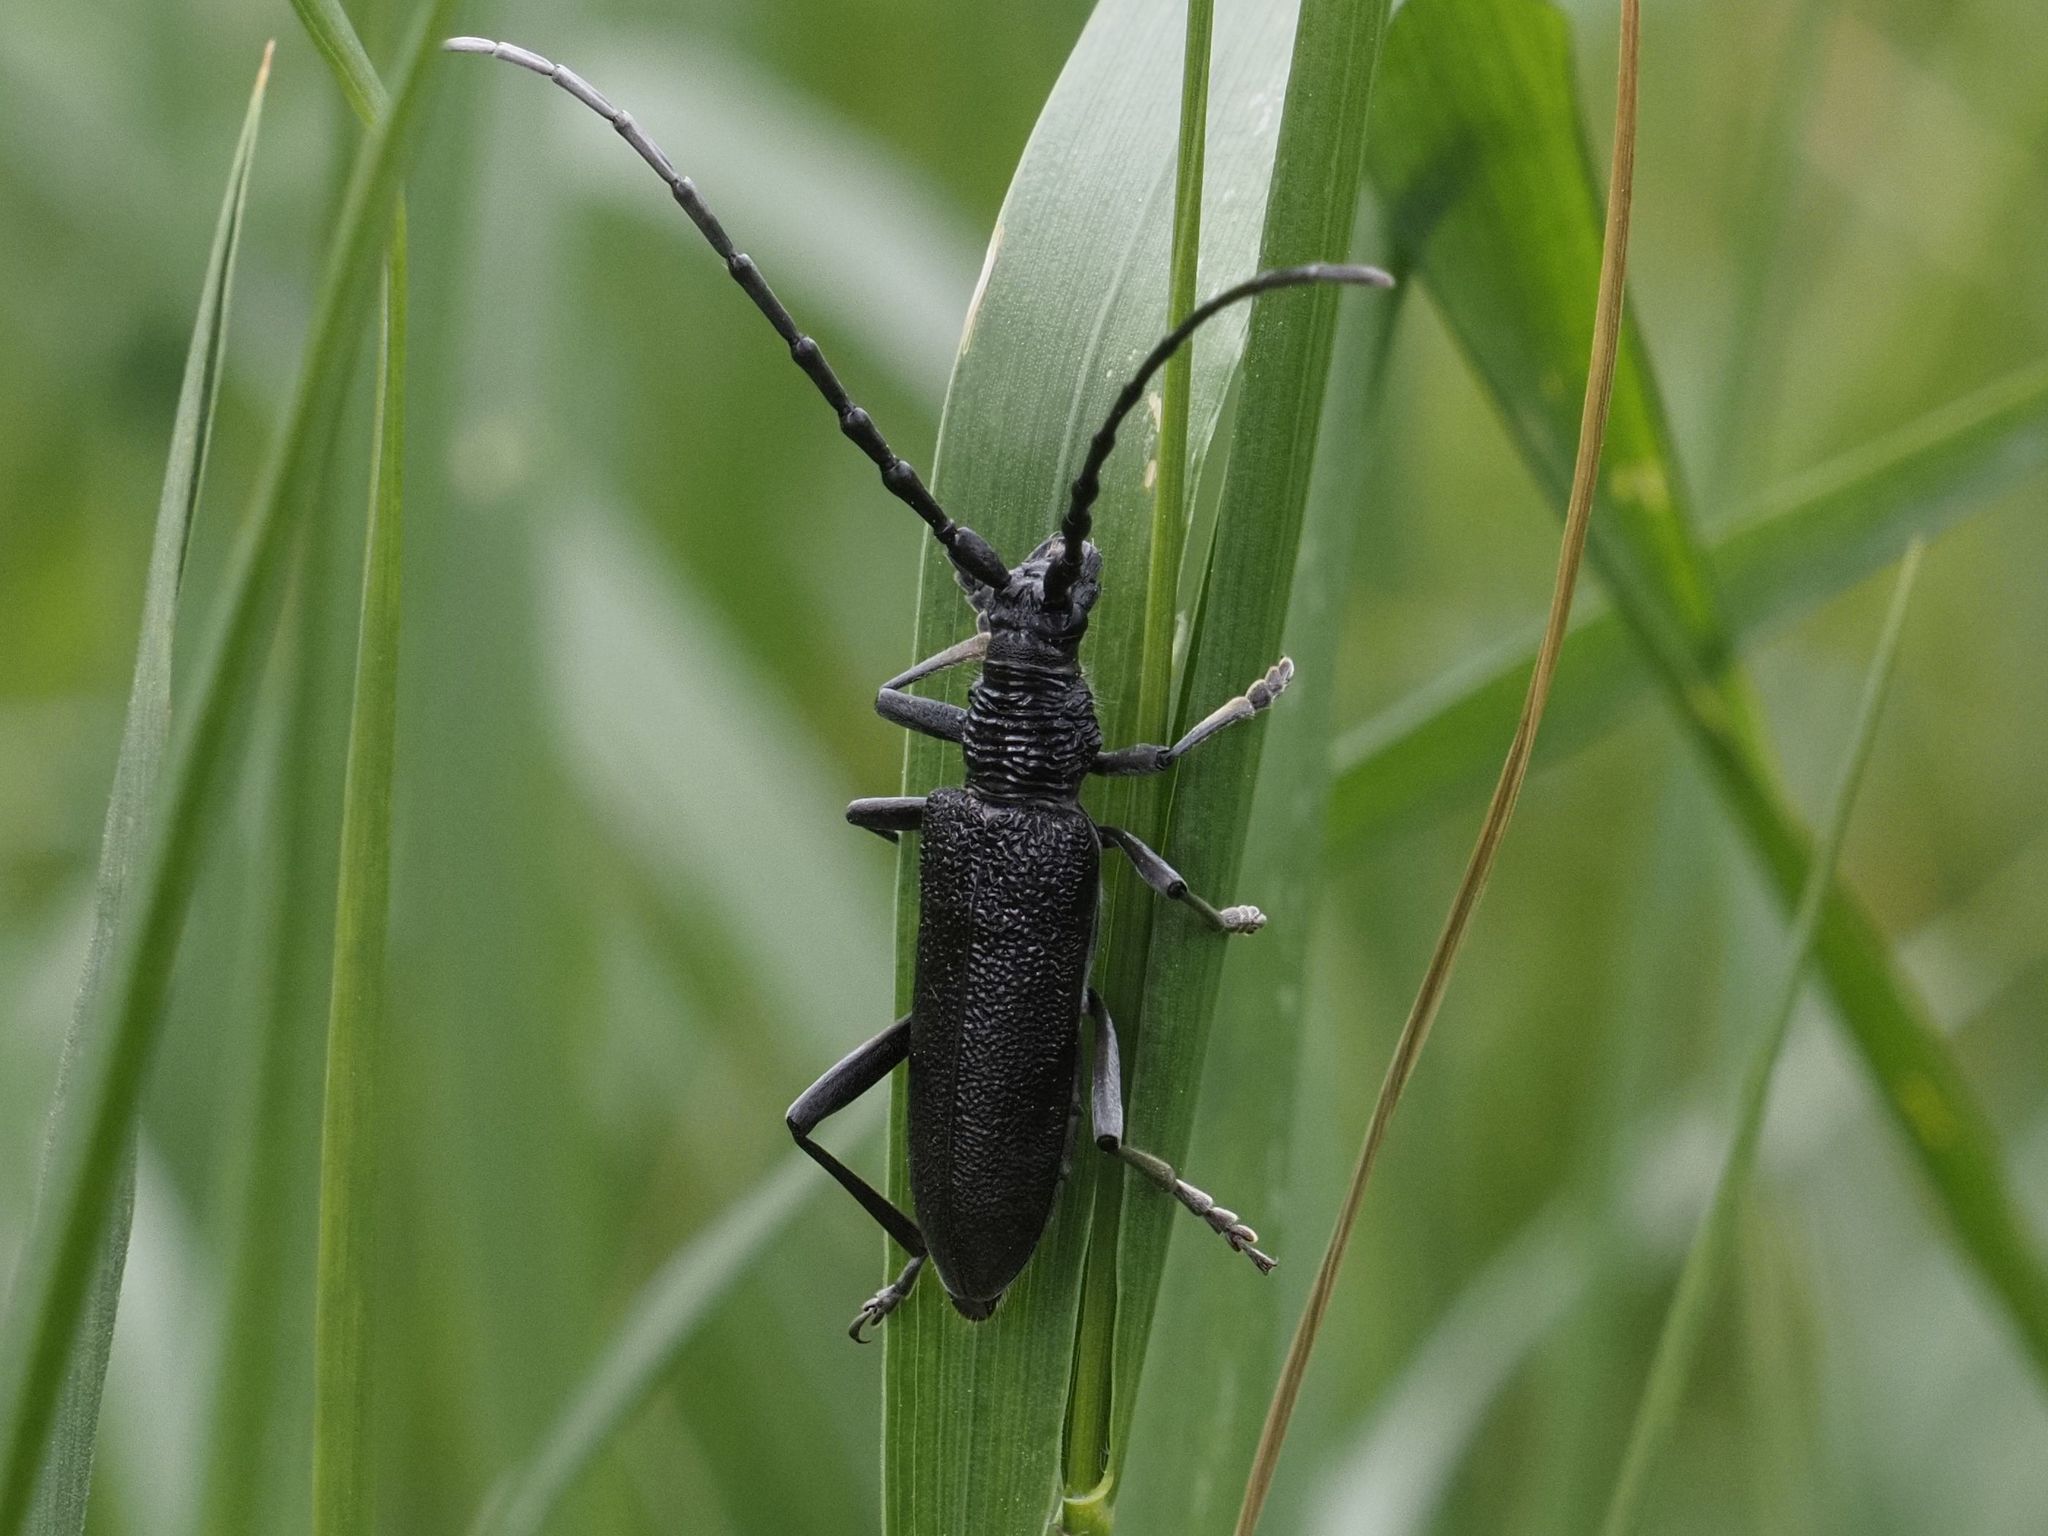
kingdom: Animalia
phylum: Arthropoda
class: Insecta
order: Coleoptera
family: Cerambycidae
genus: Cerambyx
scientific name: Cerambyx scopolii
